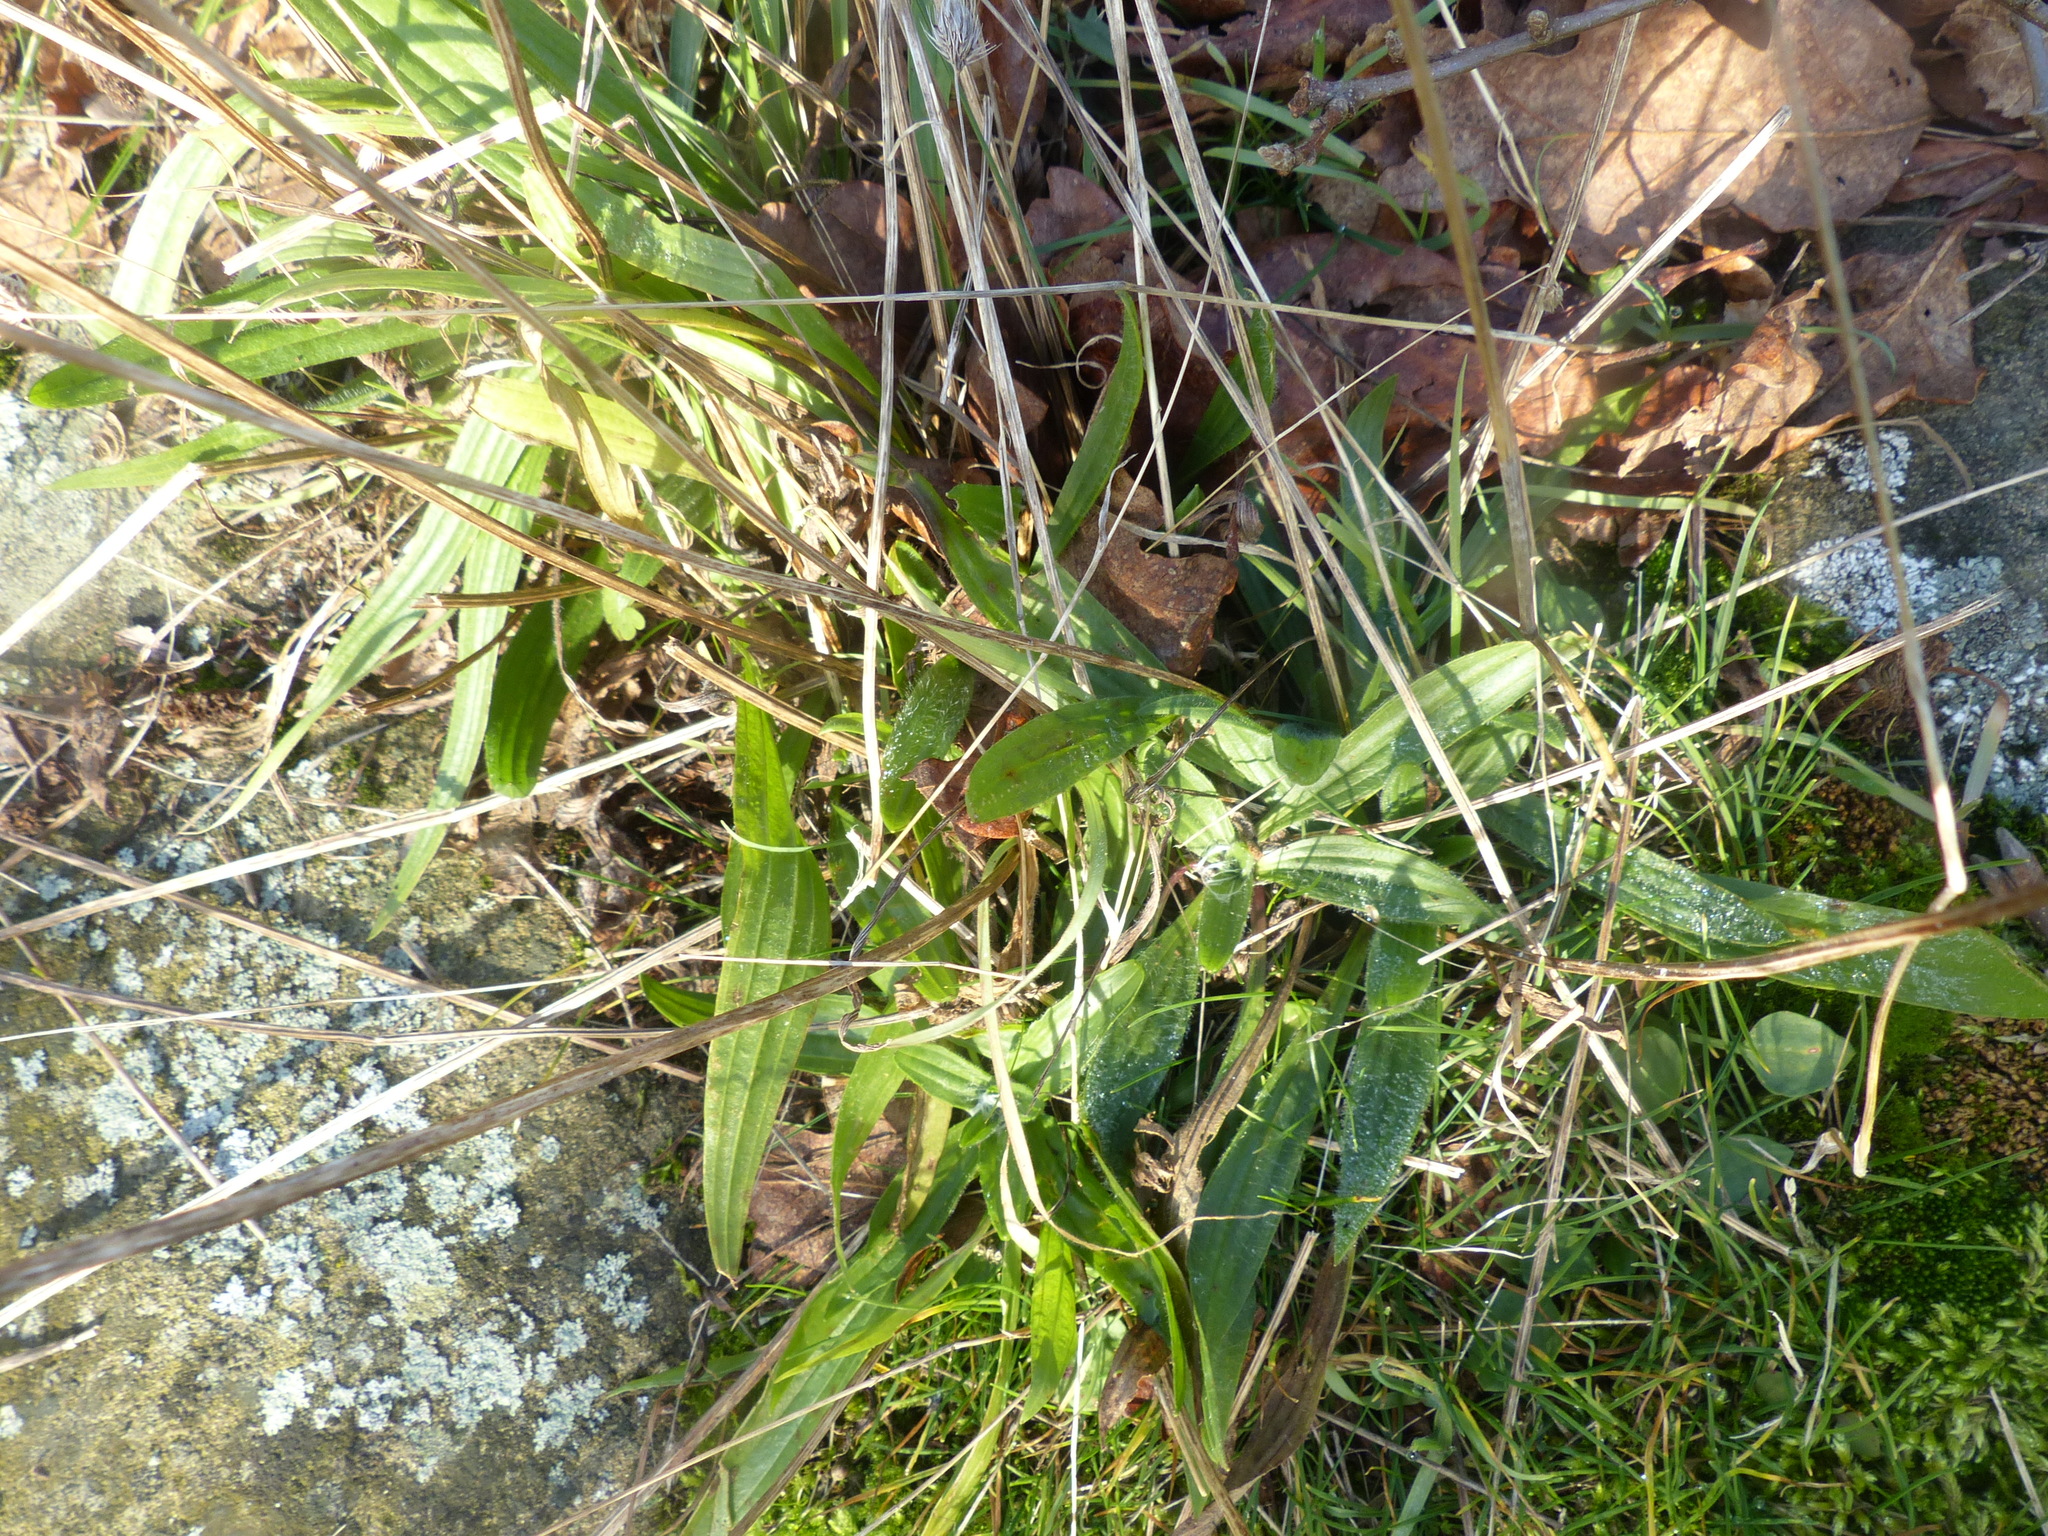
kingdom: Plantae
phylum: Tracheophyta
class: Magnoliopsida
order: Lamiales
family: Plantaginaceae
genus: Plantago
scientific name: Plantago lanceolata
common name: Ribwort plantain
